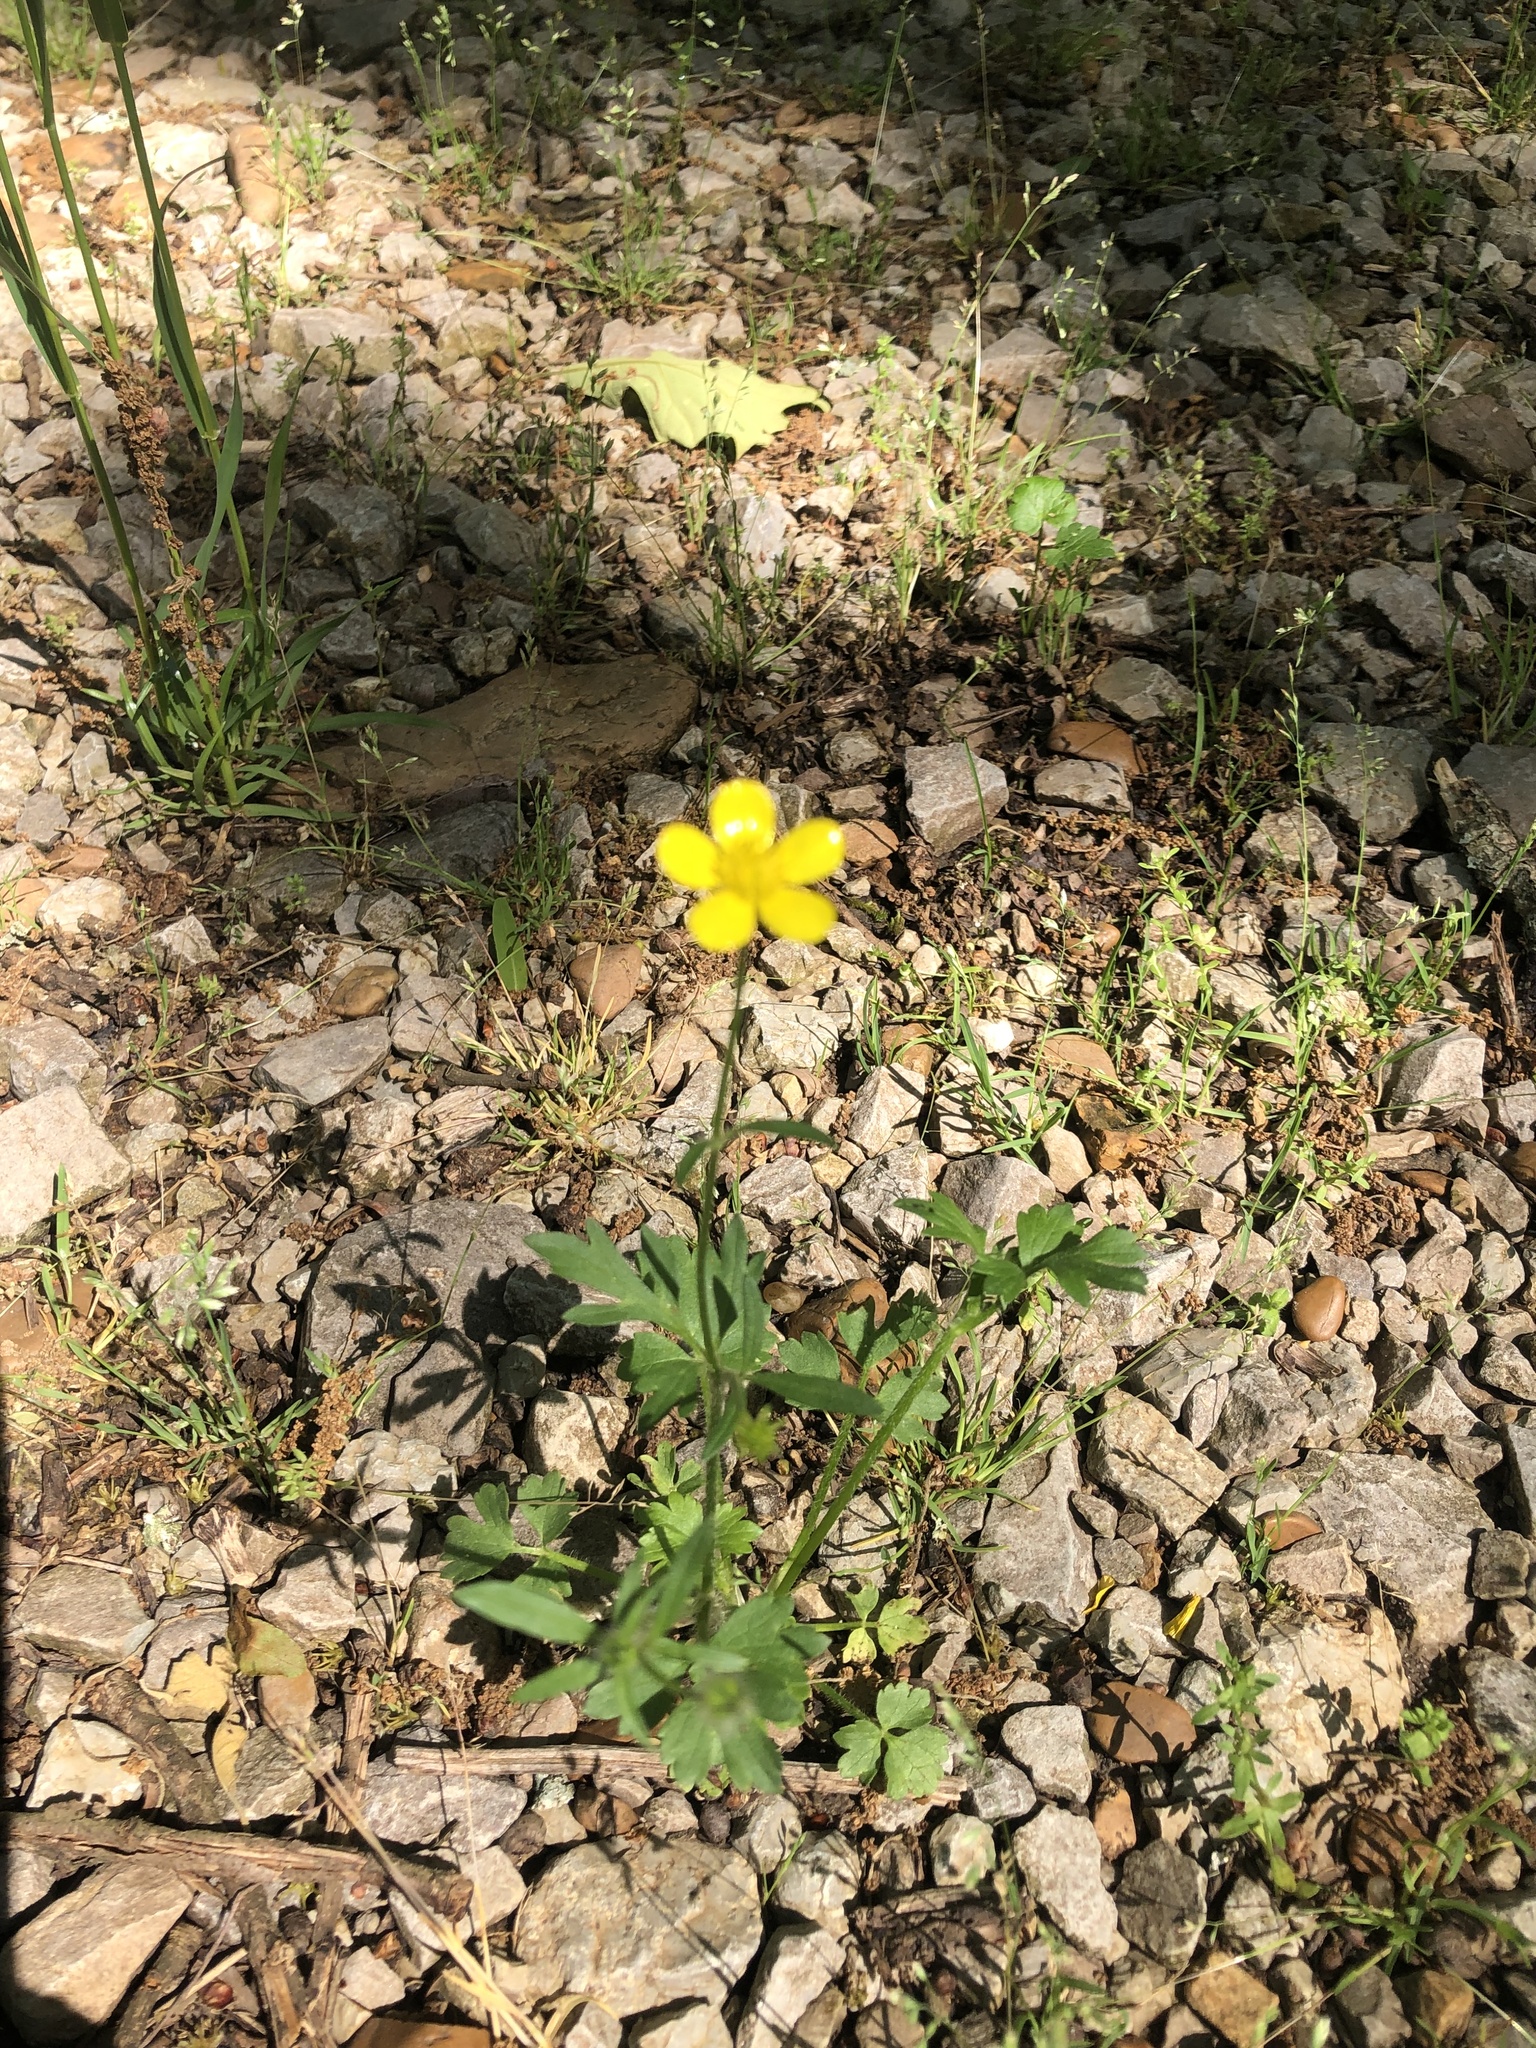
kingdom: Plantae
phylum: Tracheophyta
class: Magnoliopsida
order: Ranunculales
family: Ranunculaceae
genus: Ranunculus
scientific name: Ranunculus sardous
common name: Hairy buttercup
